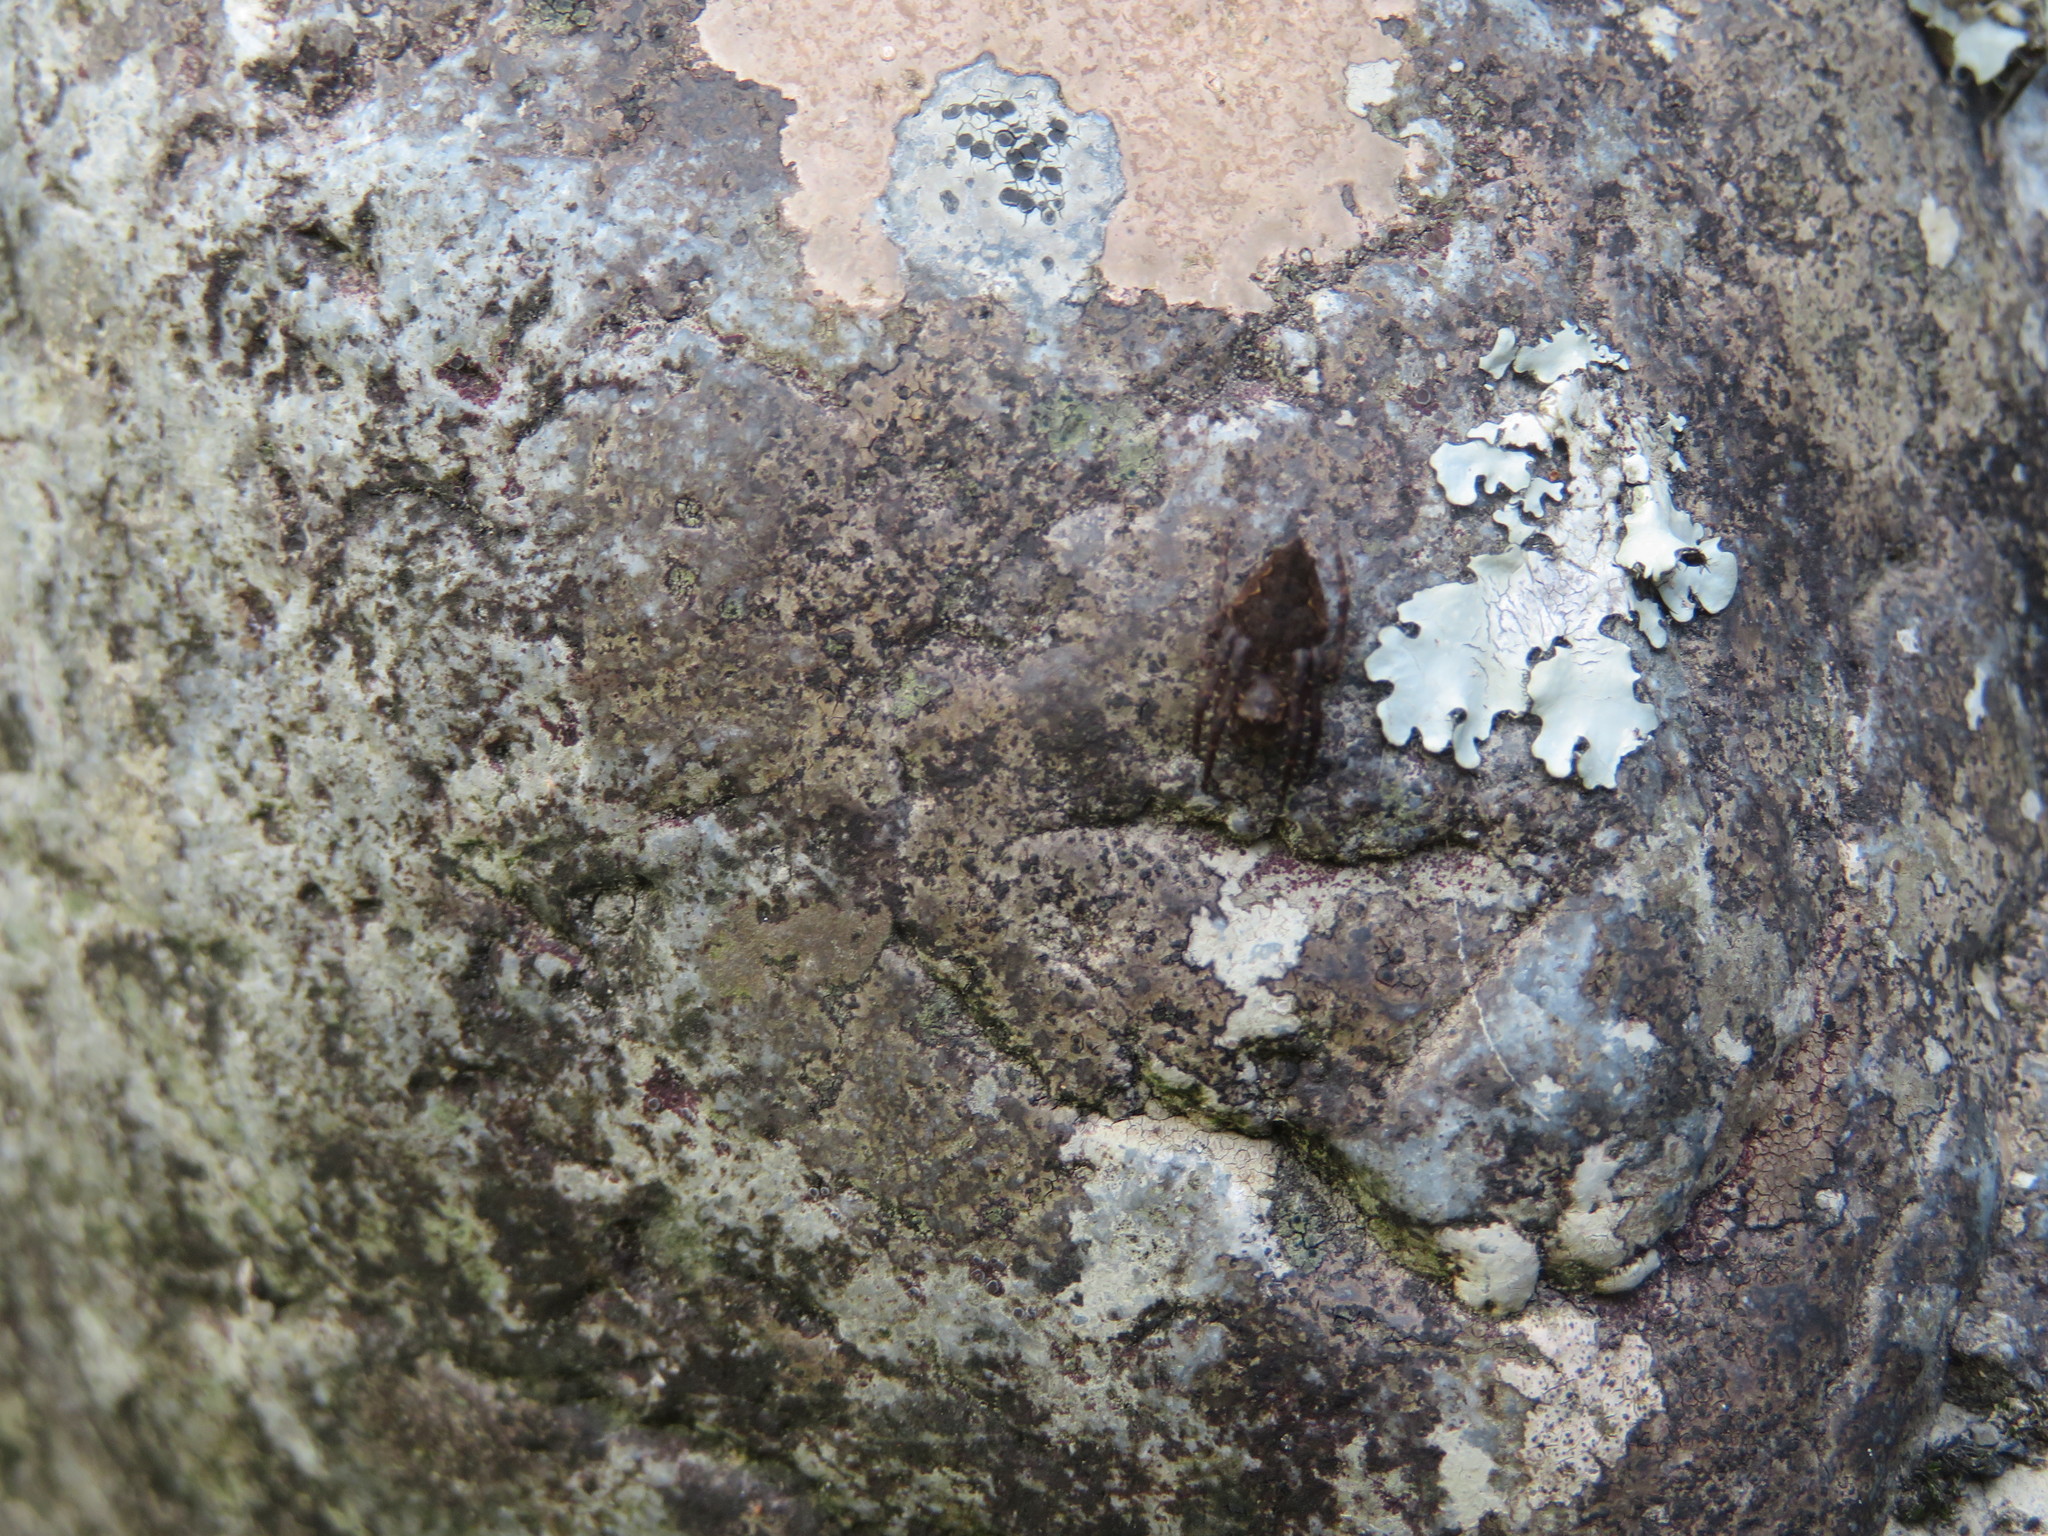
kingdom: Animalia
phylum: Arthropoda
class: Arachnida
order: Araneae
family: Araneidae
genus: Eriophora
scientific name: Eriophora pustulosa
